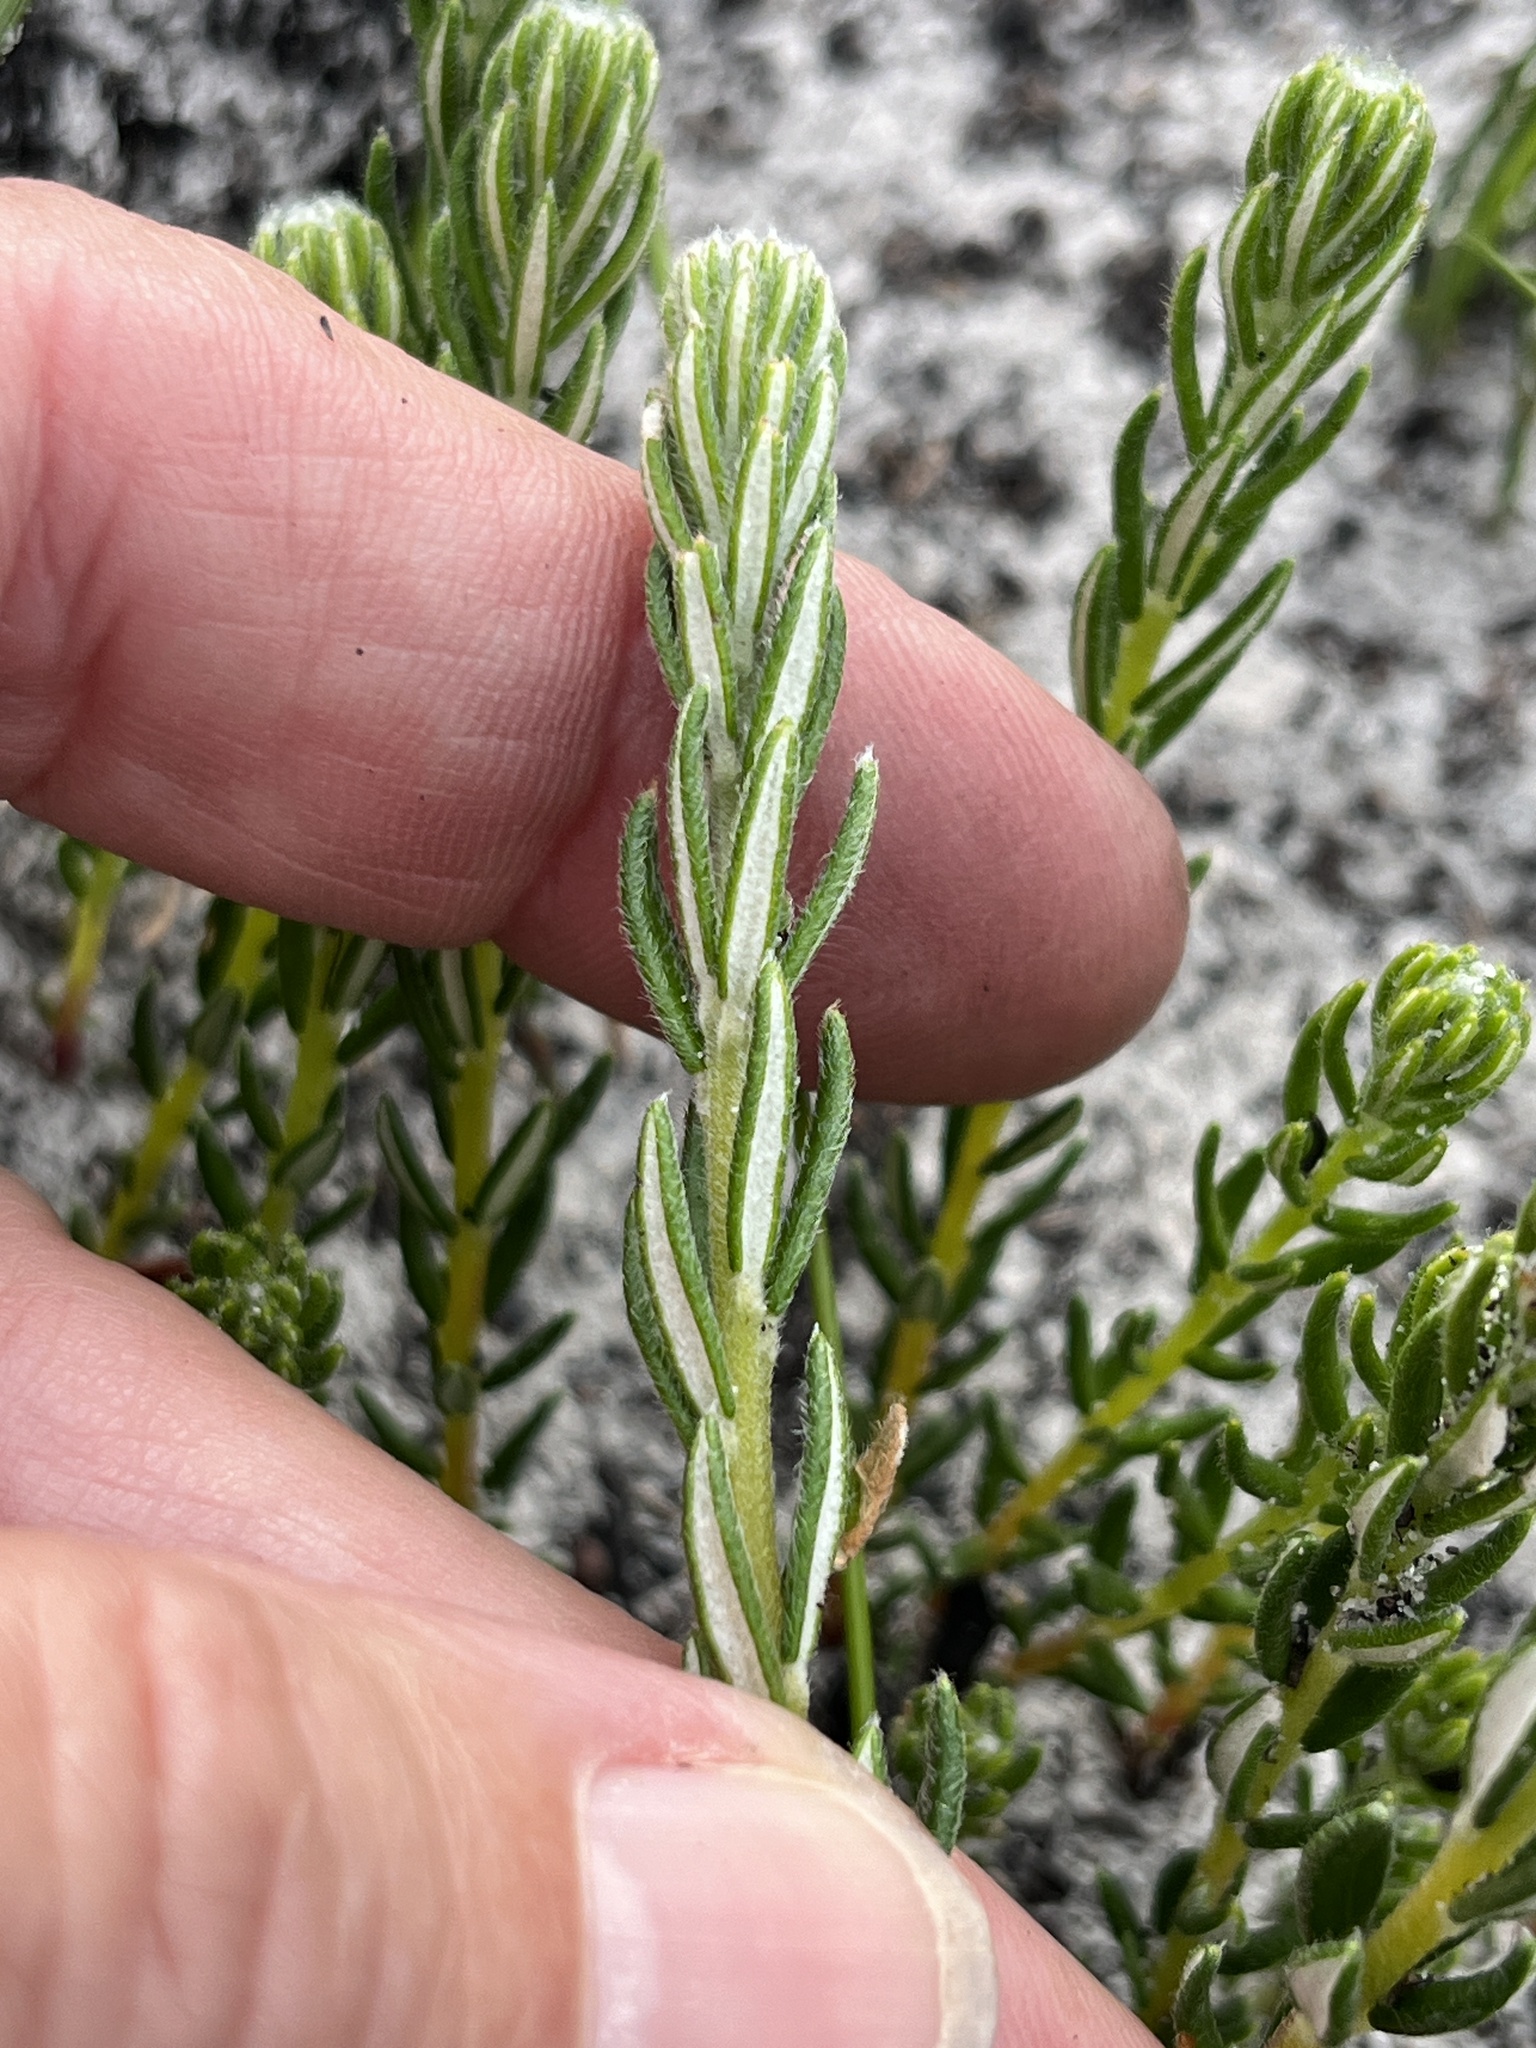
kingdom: Plantae
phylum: Tracheophyta
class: Magnoliopsida
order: Rosales
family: Rhamnaceae
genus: Phylica
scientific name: Phylica imberbis
